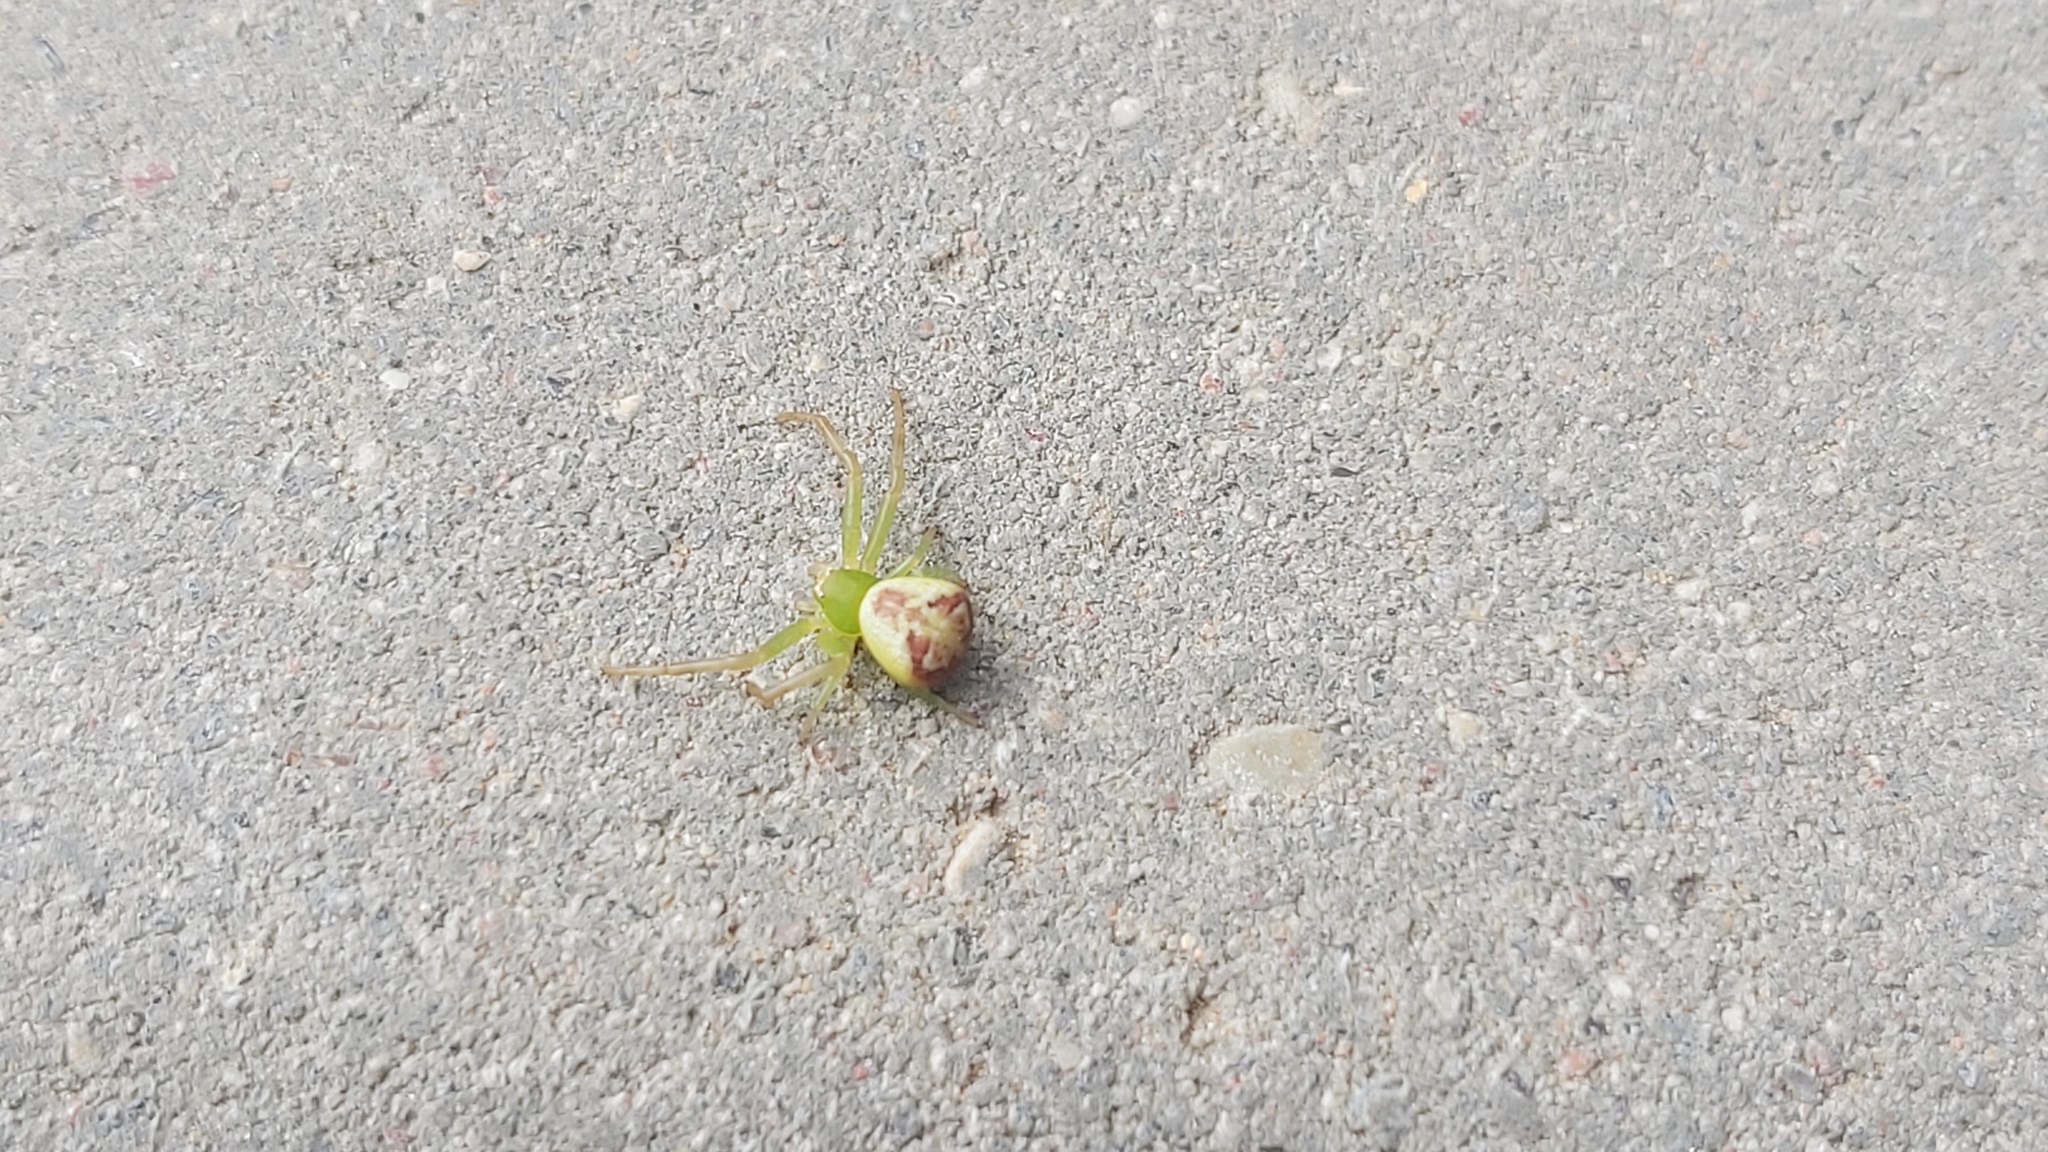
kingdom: Animalia
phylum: Arthropoda
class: Arachnida
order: Araneae
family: Thomisidae
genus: Ebrechtella
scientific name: Ebrechtella tricuspidata
